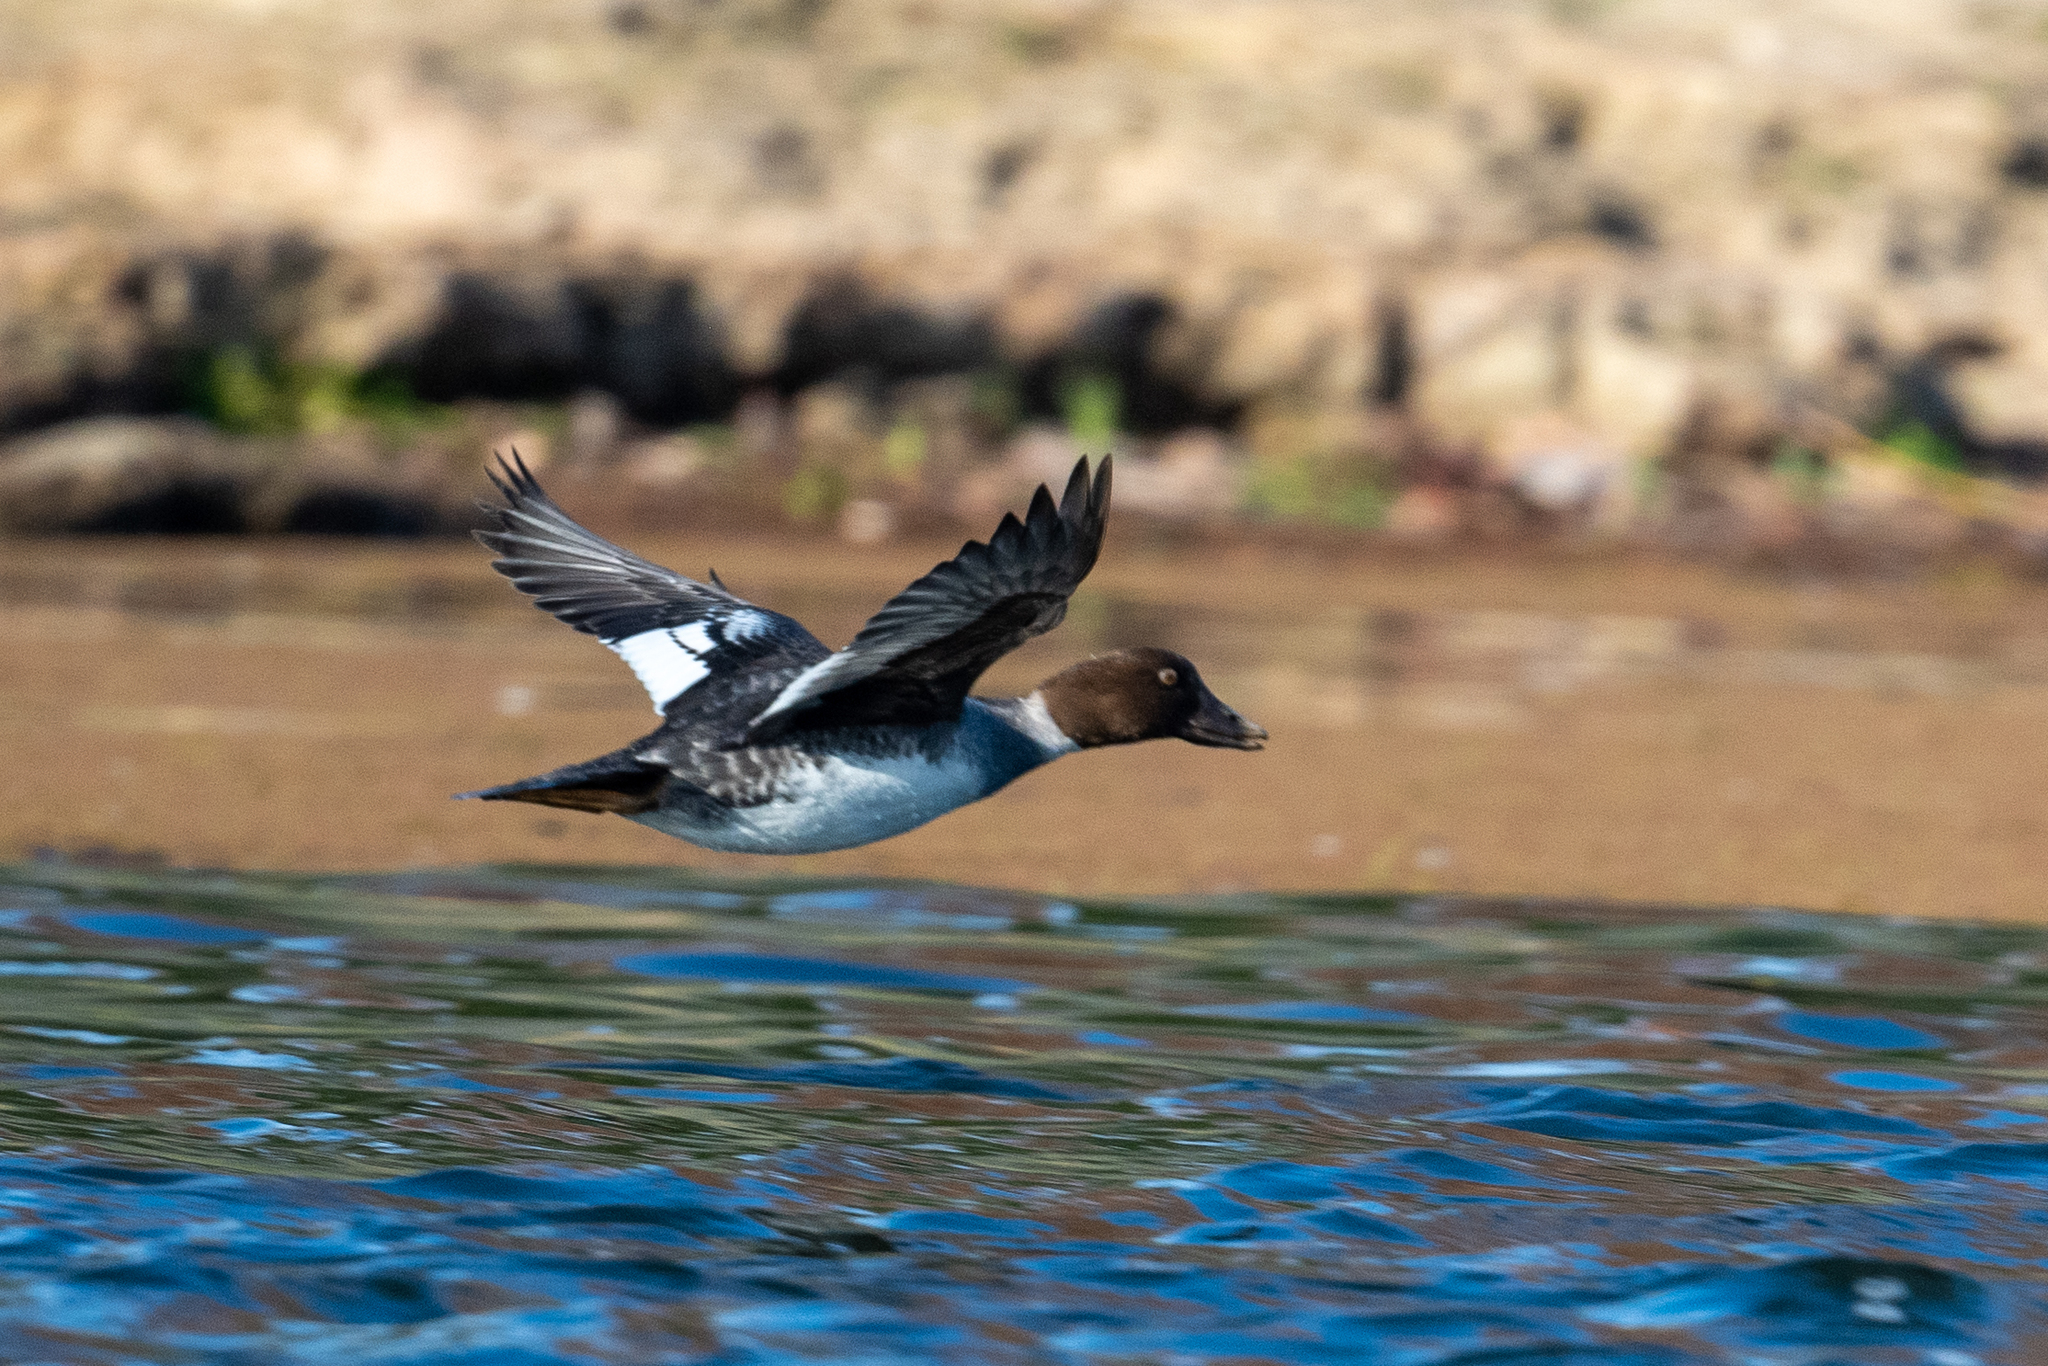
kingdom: Animalia
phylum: Chordata
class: Aves
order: Anseriformes
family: Anatidae
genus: Bucephala
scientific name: Bucephala clangula
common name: Common goldeneye
